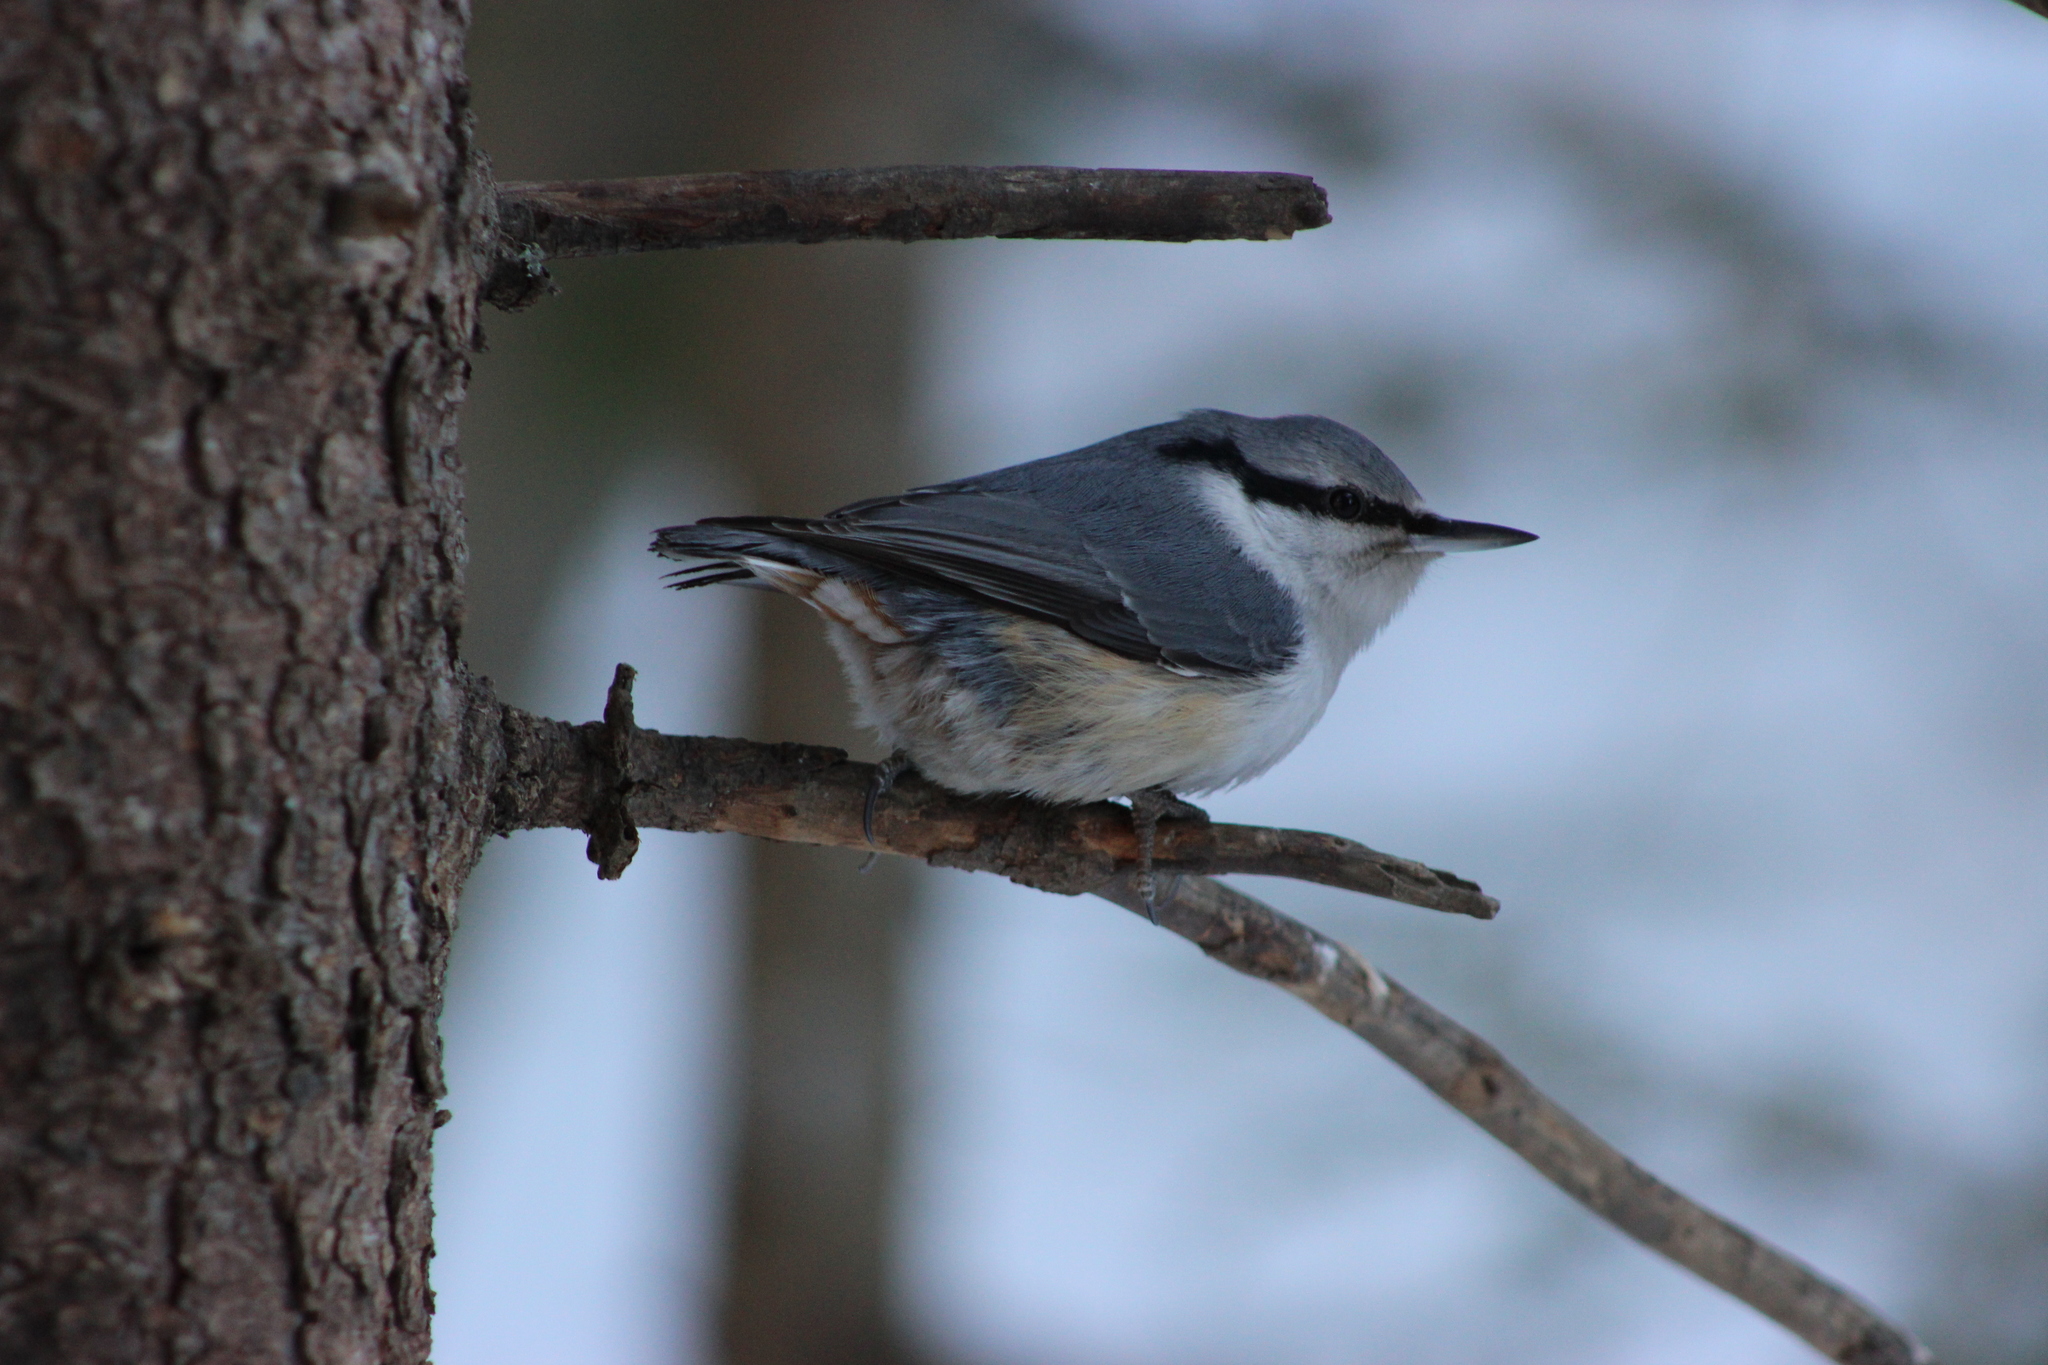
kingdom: Animalia
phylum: Chordata
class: Aves
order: Passeriformes
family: Sittidae
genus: Sitta
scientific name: Sitta europaea
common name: Eurasian nuthatch
